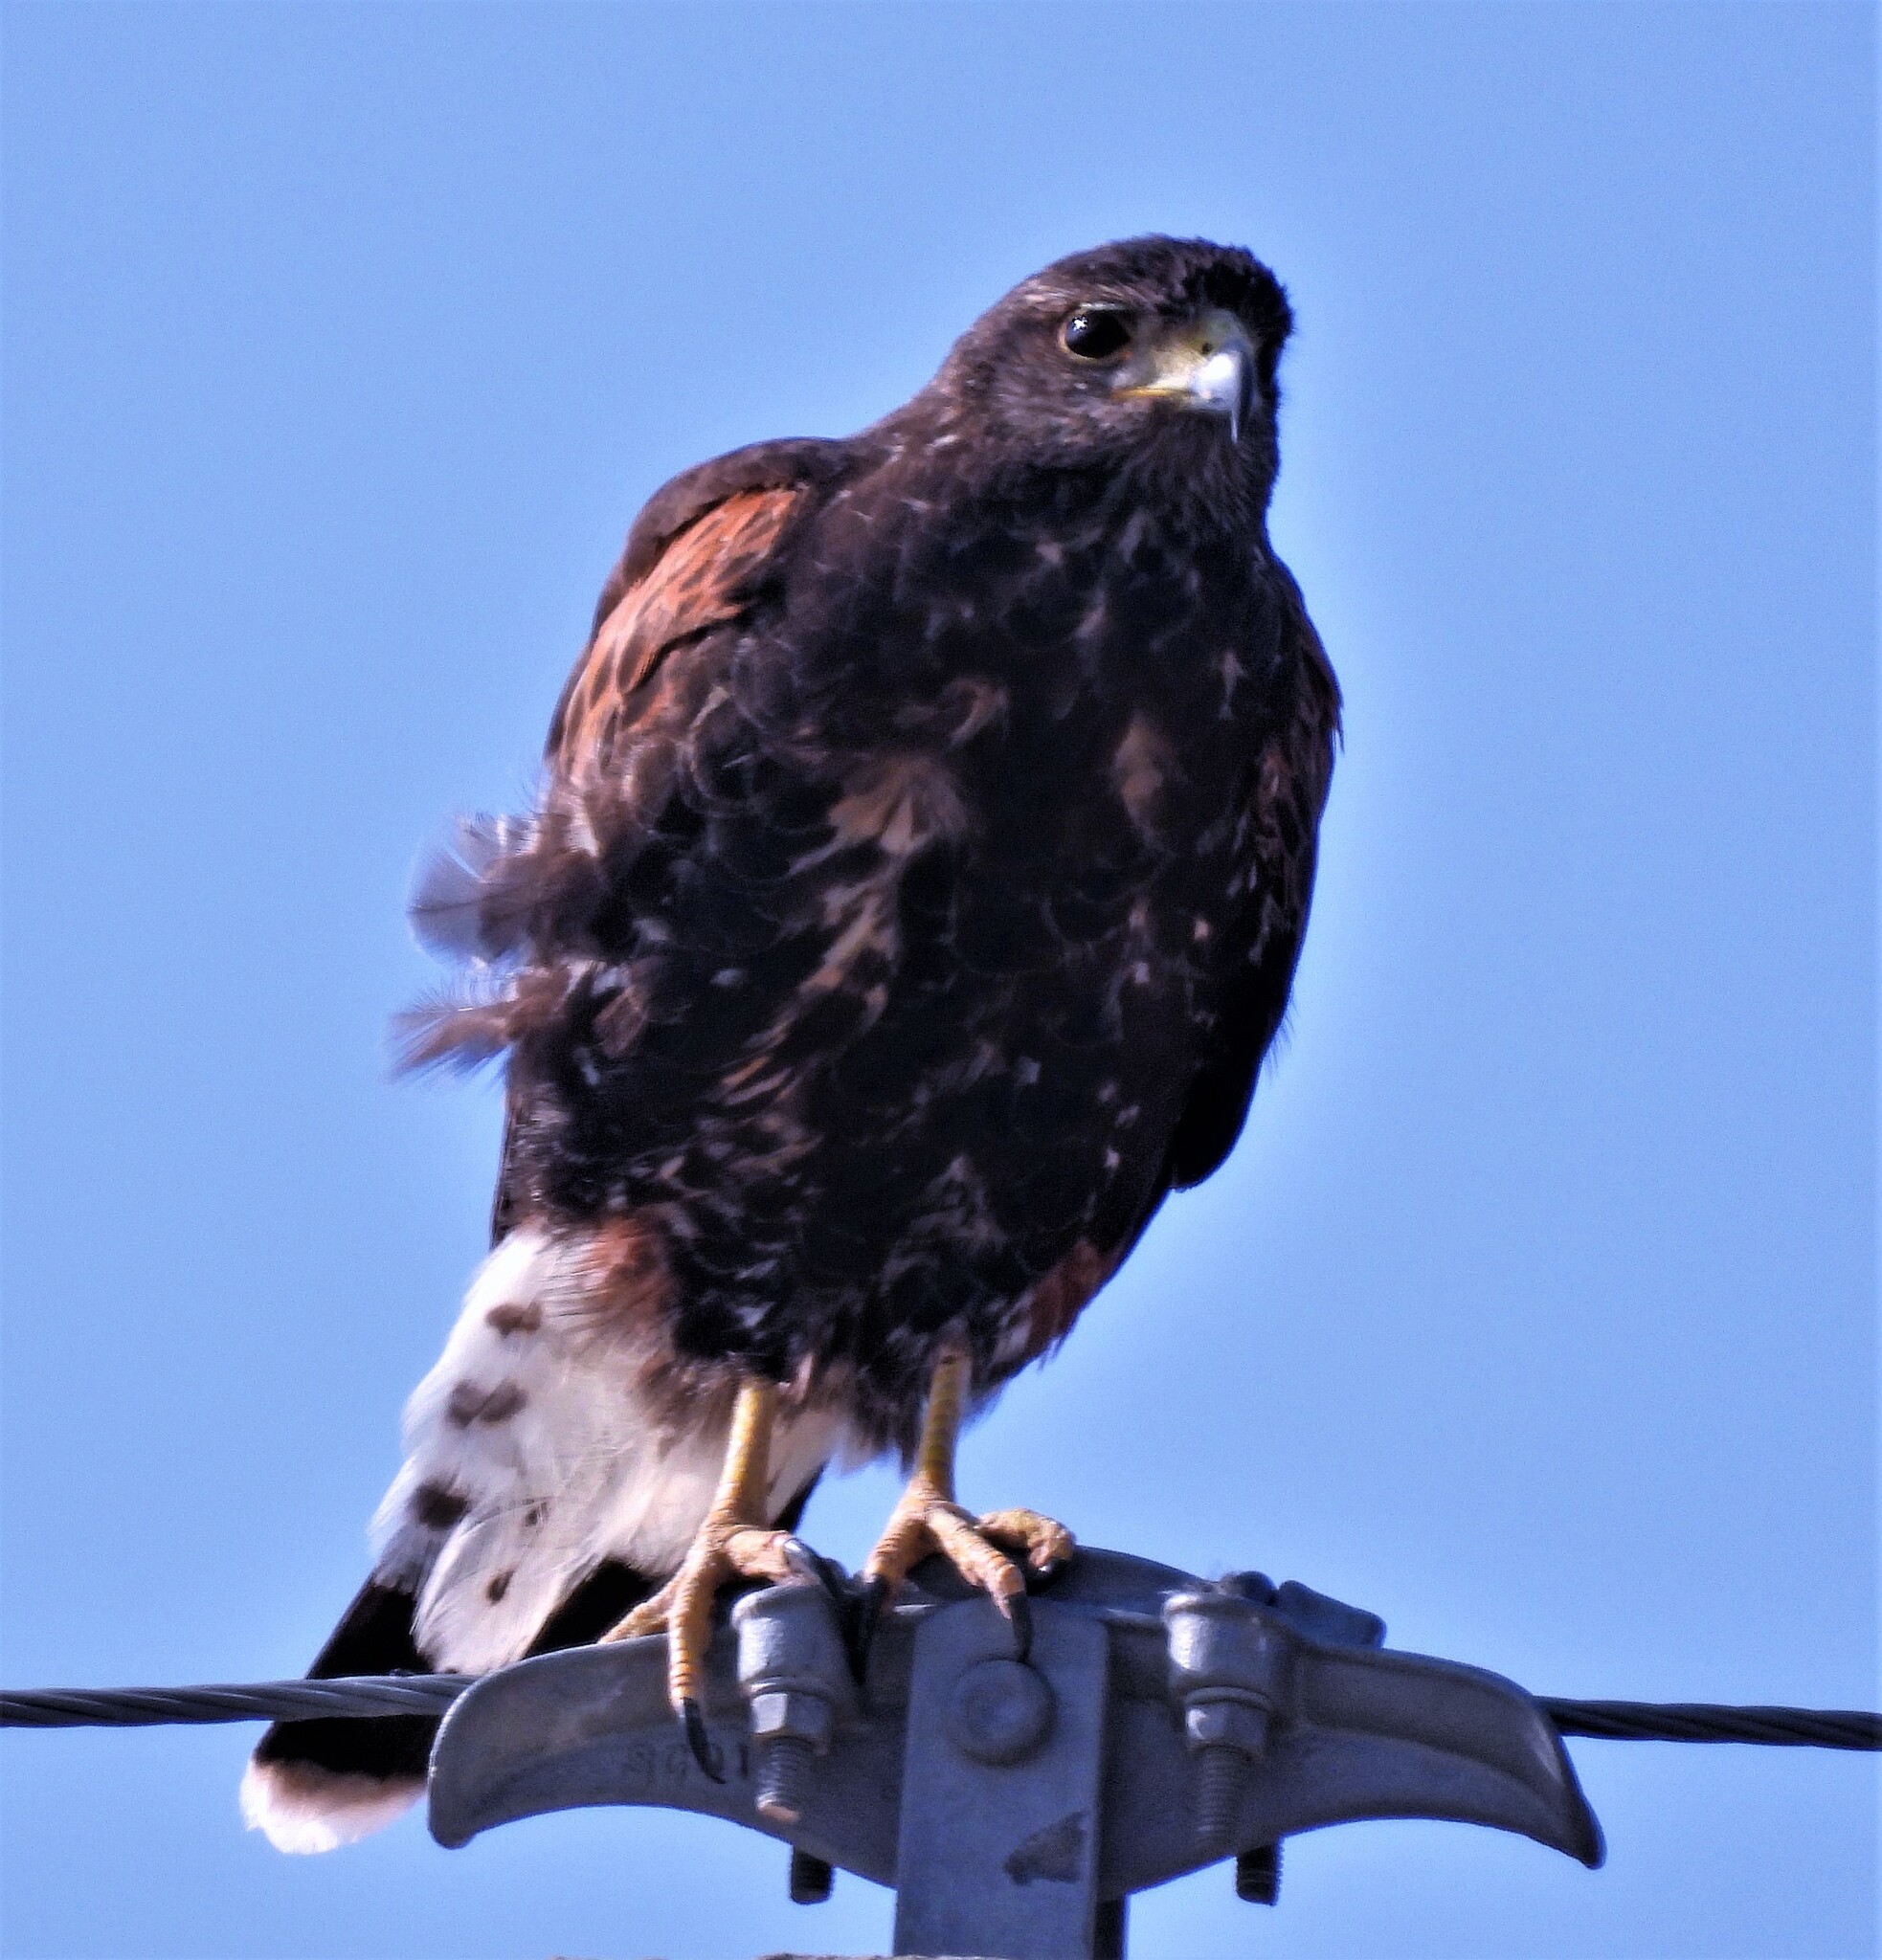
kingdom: Animalia
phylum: Chordata
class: Aves
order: Accipitriformes
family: Accipitridae
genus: Parabuteo
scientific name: Parabuteo unicinctus
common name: Harris's hawk
